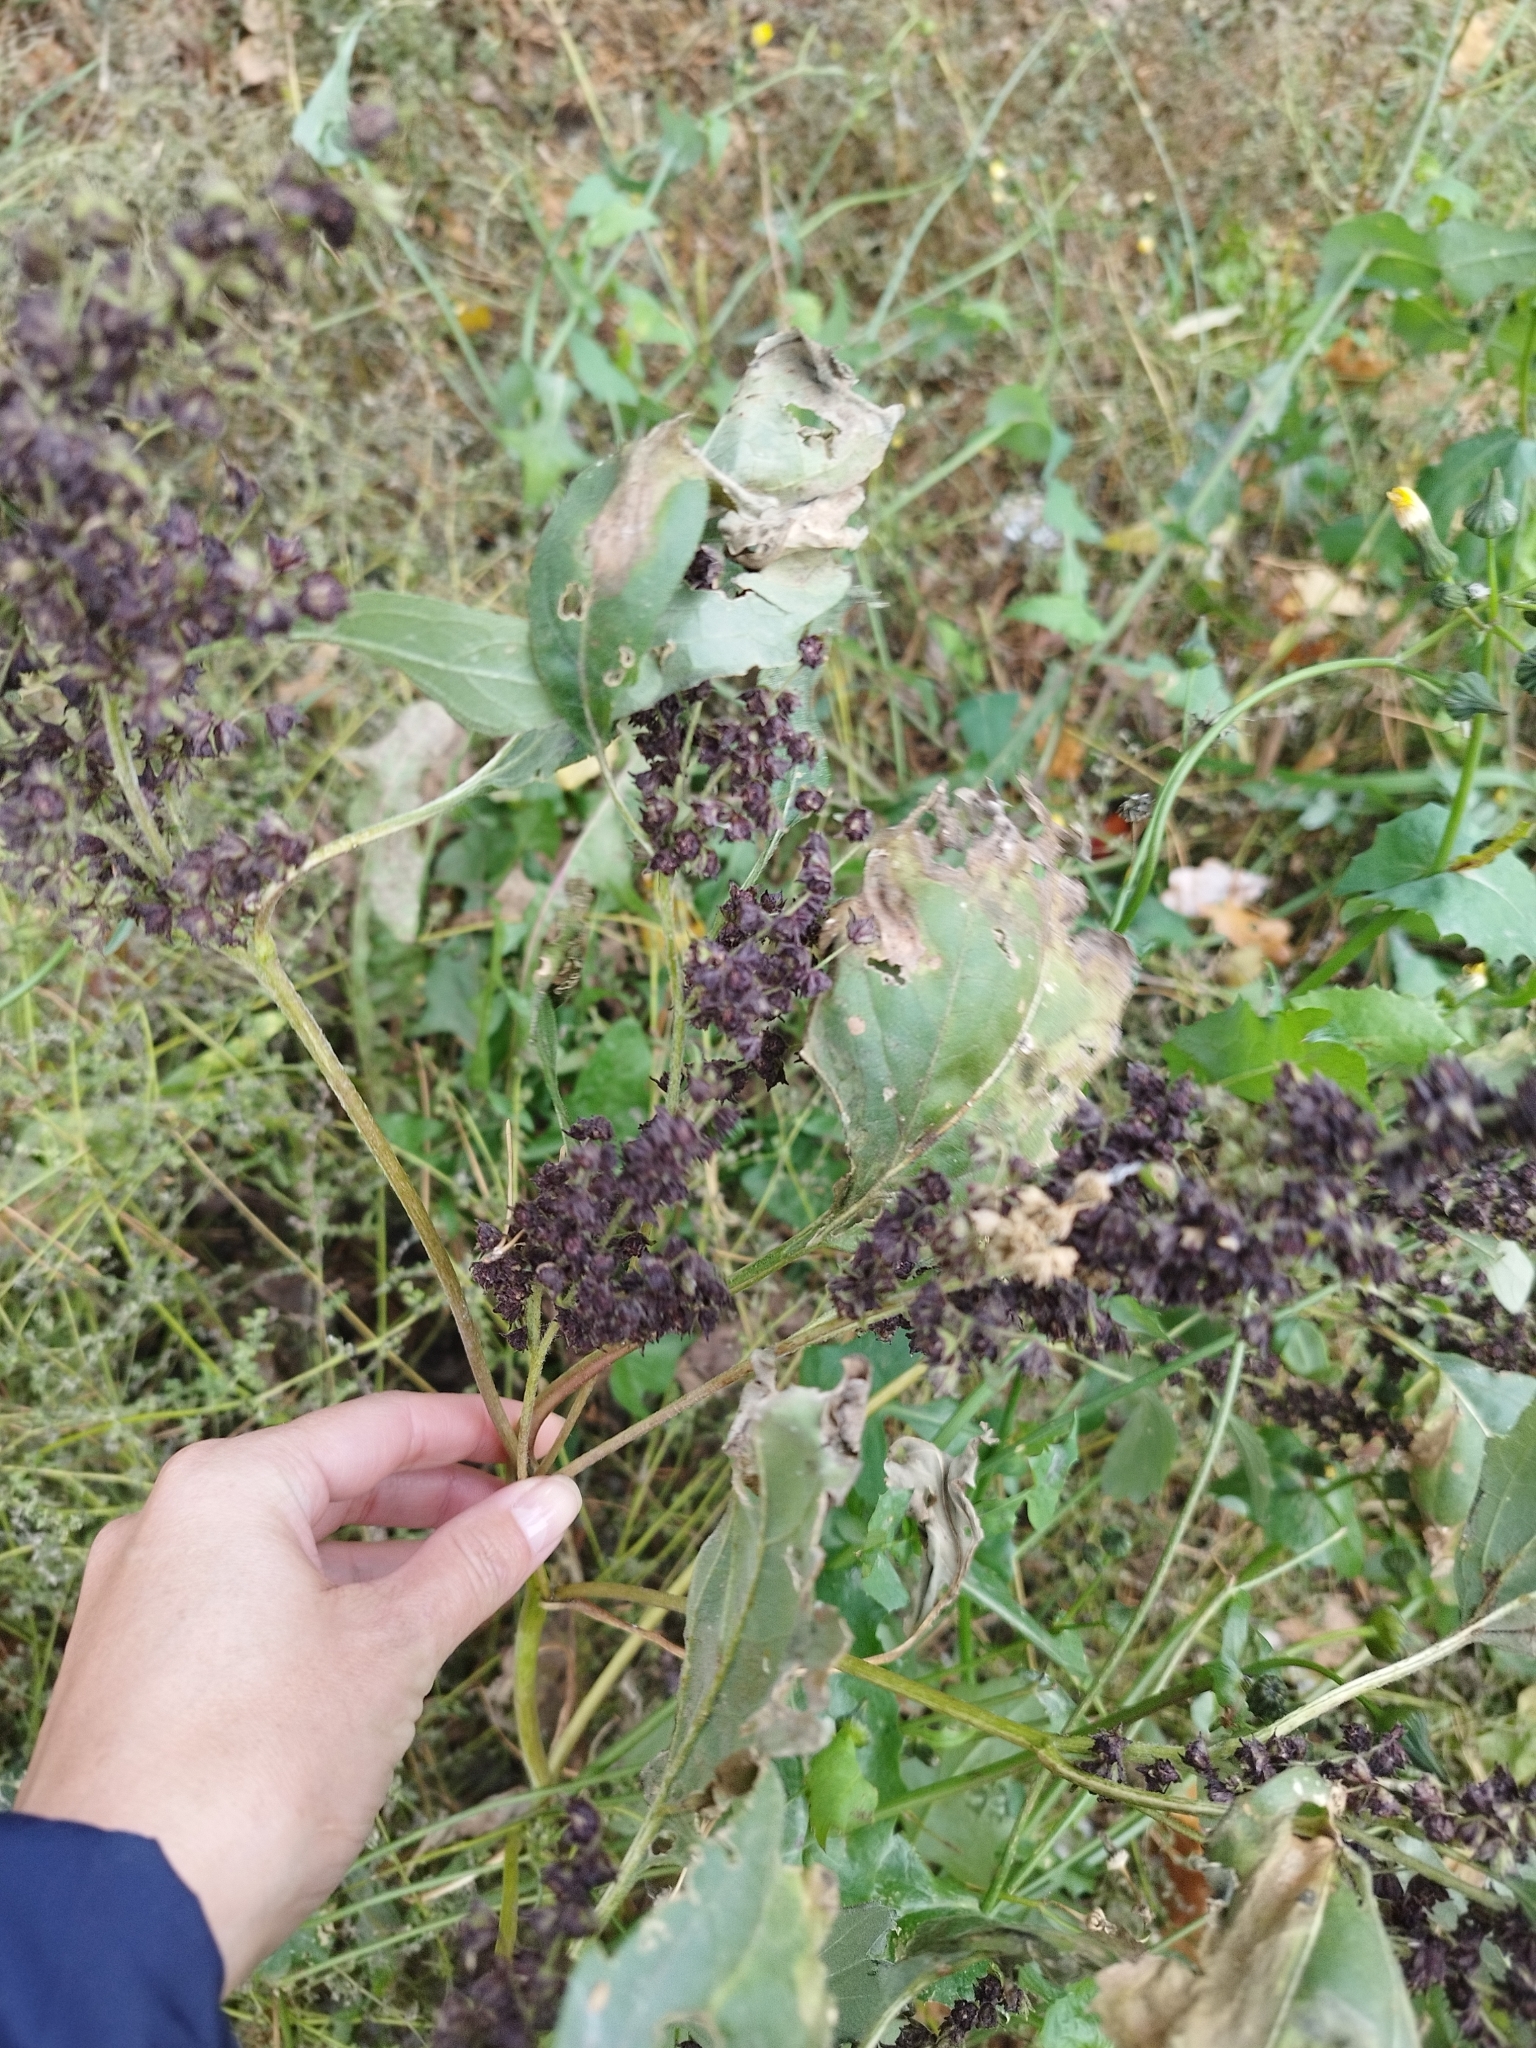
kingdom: Plantae
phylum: Tracheophyta
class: Magnoliopsida
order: Asterales
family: Asteraceae
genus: Cyclachaena
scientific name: Cyclachaena xanthiifolia
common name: Giant sumpweed
